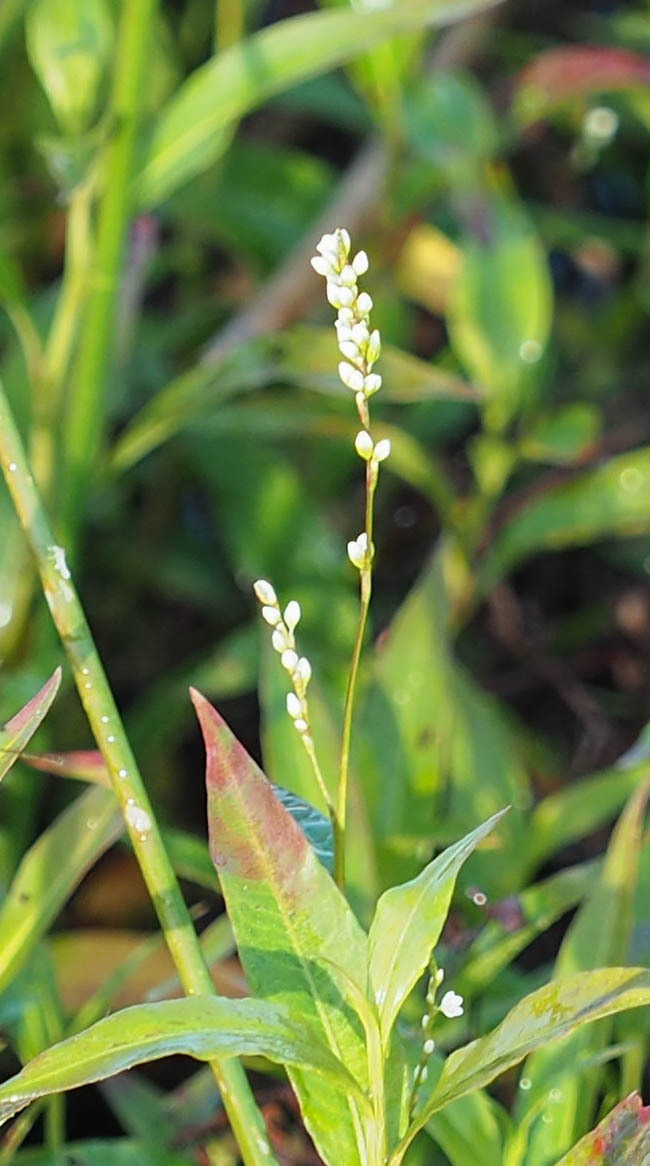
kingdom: Plantae
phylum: Tracheophyta
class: Magnoliopsida
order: Caryophyllales
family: Polygonaceae
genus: Persicaria
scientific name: Persicaria punctata
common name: Dotted smartweed
